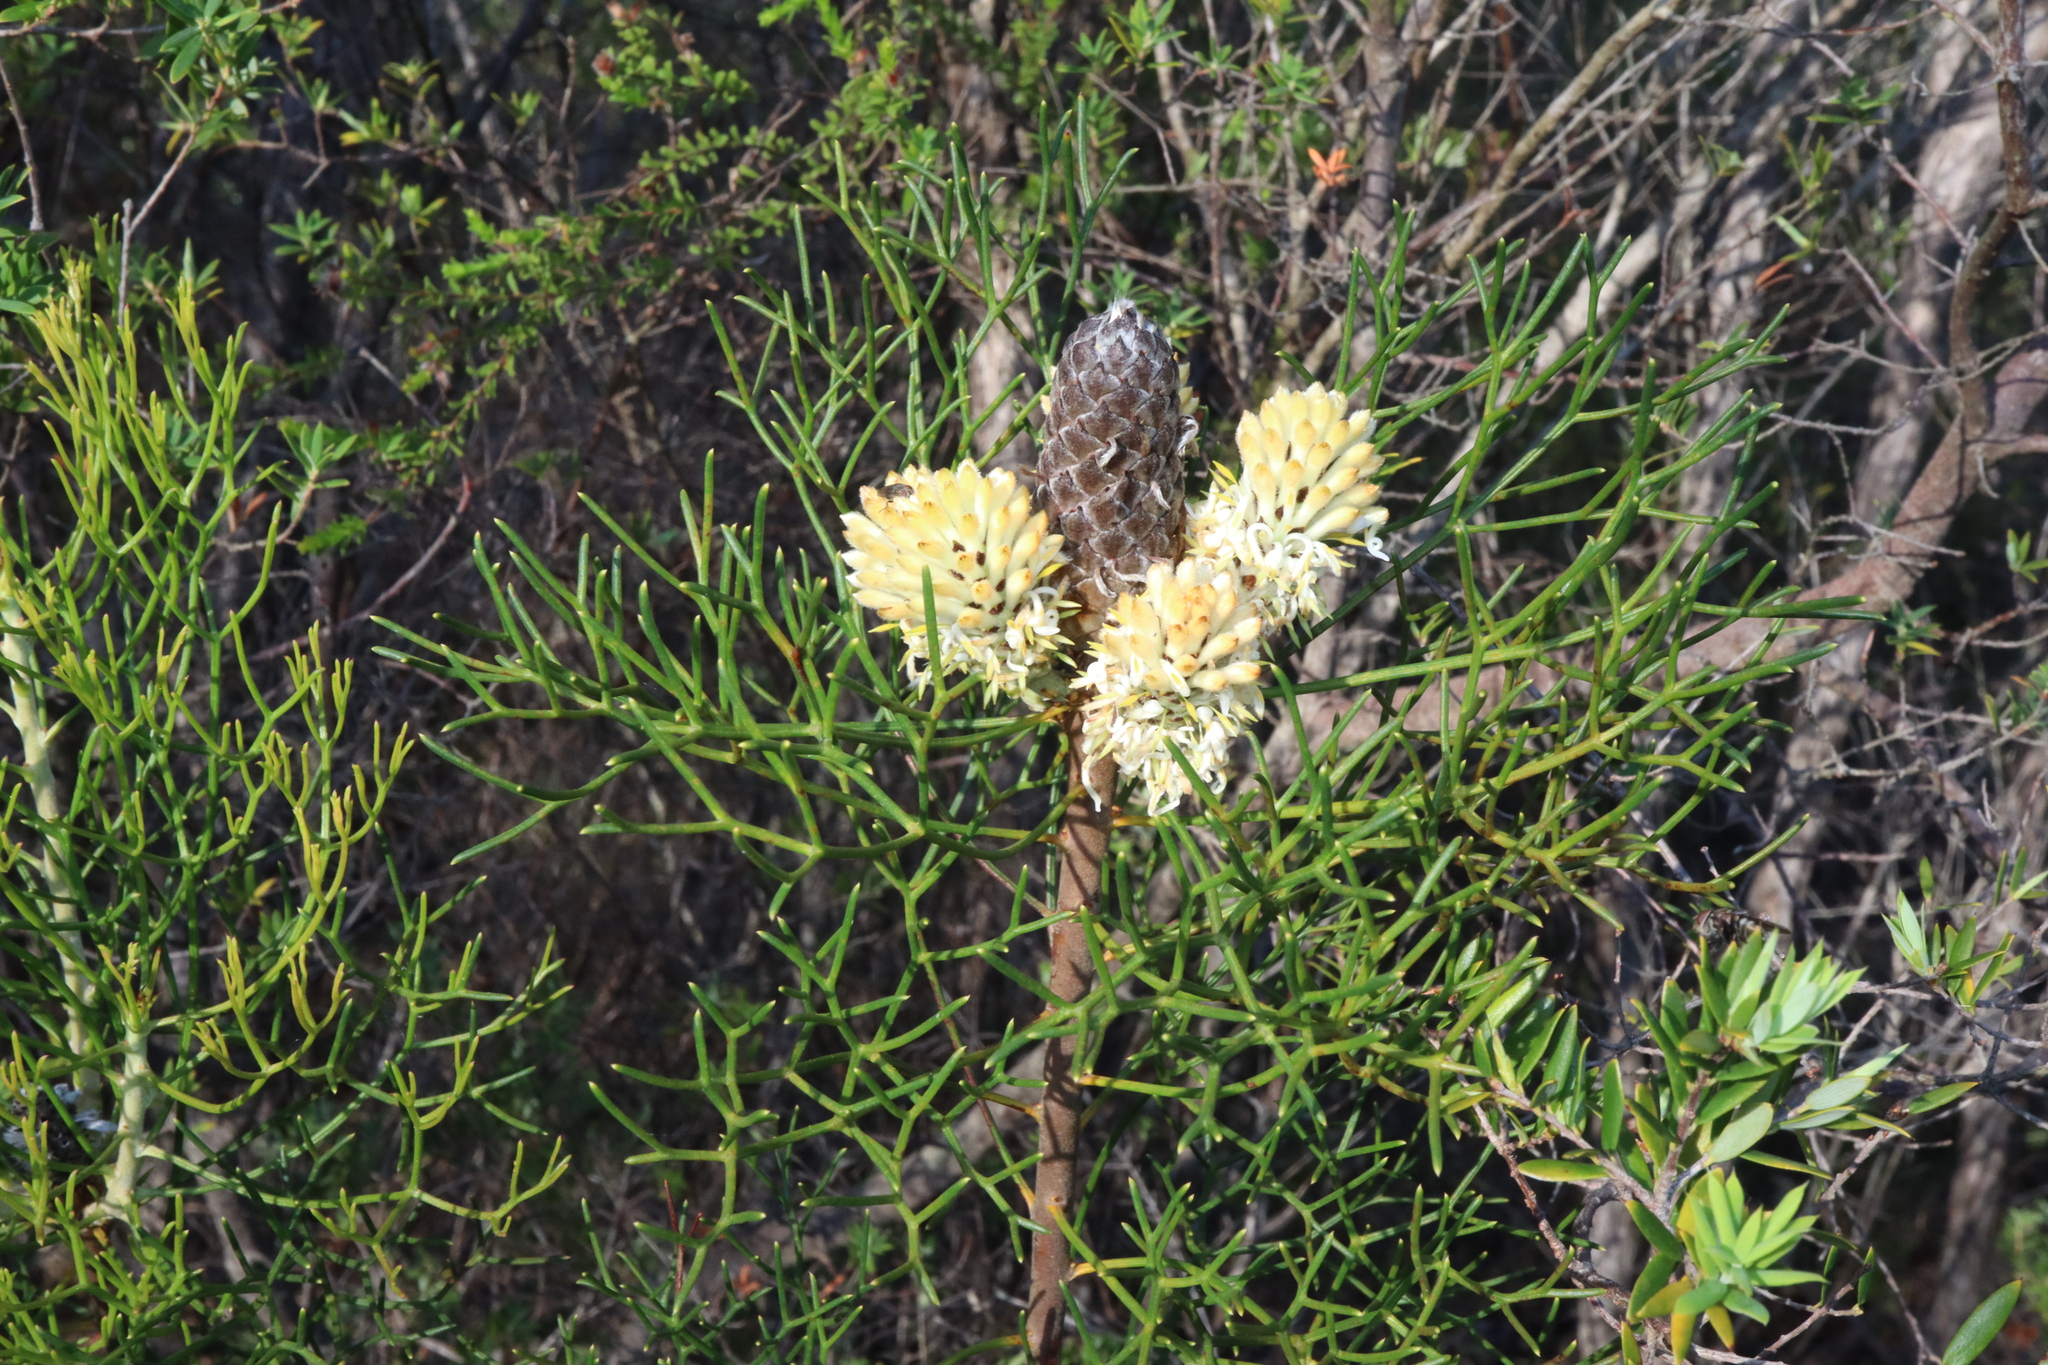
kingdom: Plantae
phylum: Tracheophyta
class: Magnoliopsida
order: Proteales
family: Proteaceae
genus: Petrophile
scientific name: Petrophile pulchella
